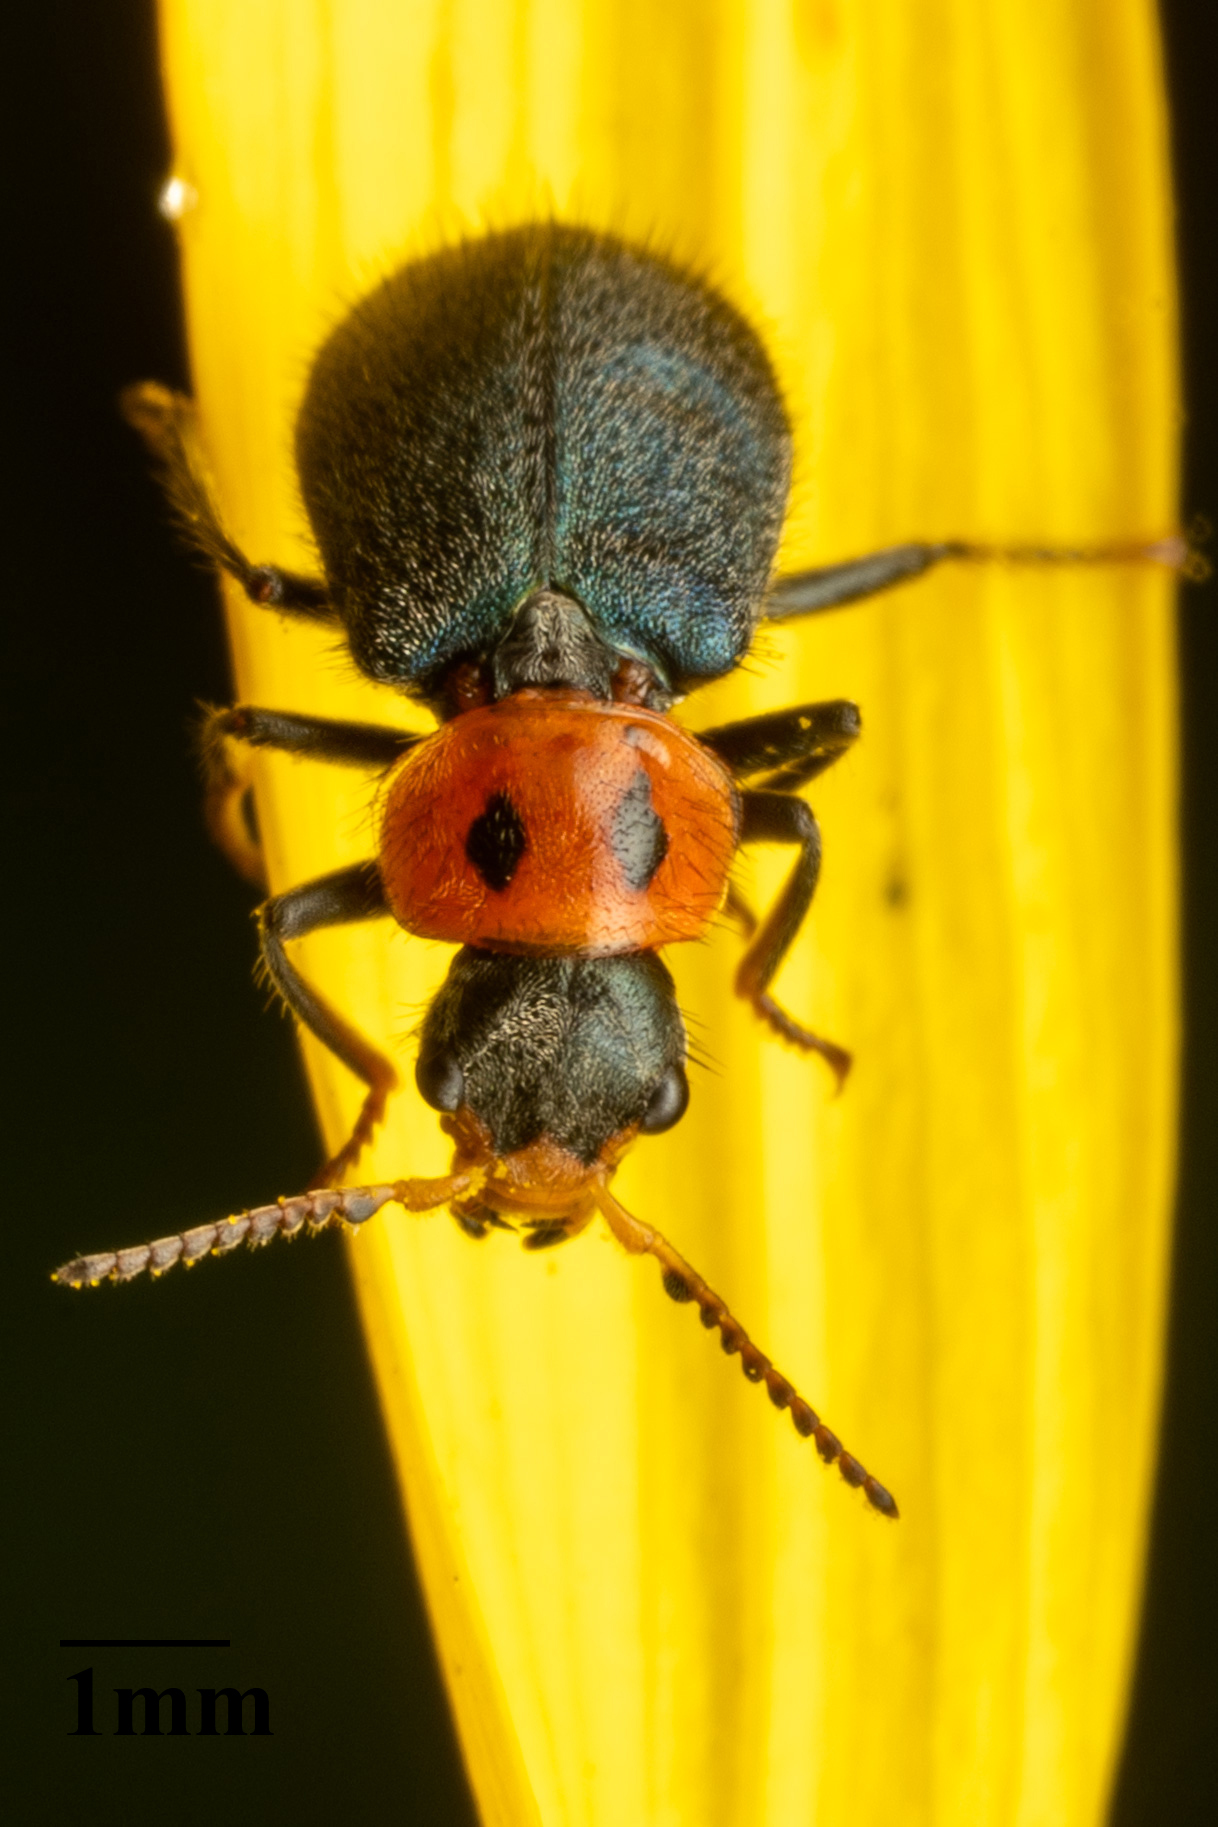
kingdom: Animalia
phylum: Arthropoda
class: Insecta
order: Coleoptera
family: Melyridae
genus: Collops
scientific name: Collops bipunctatus
